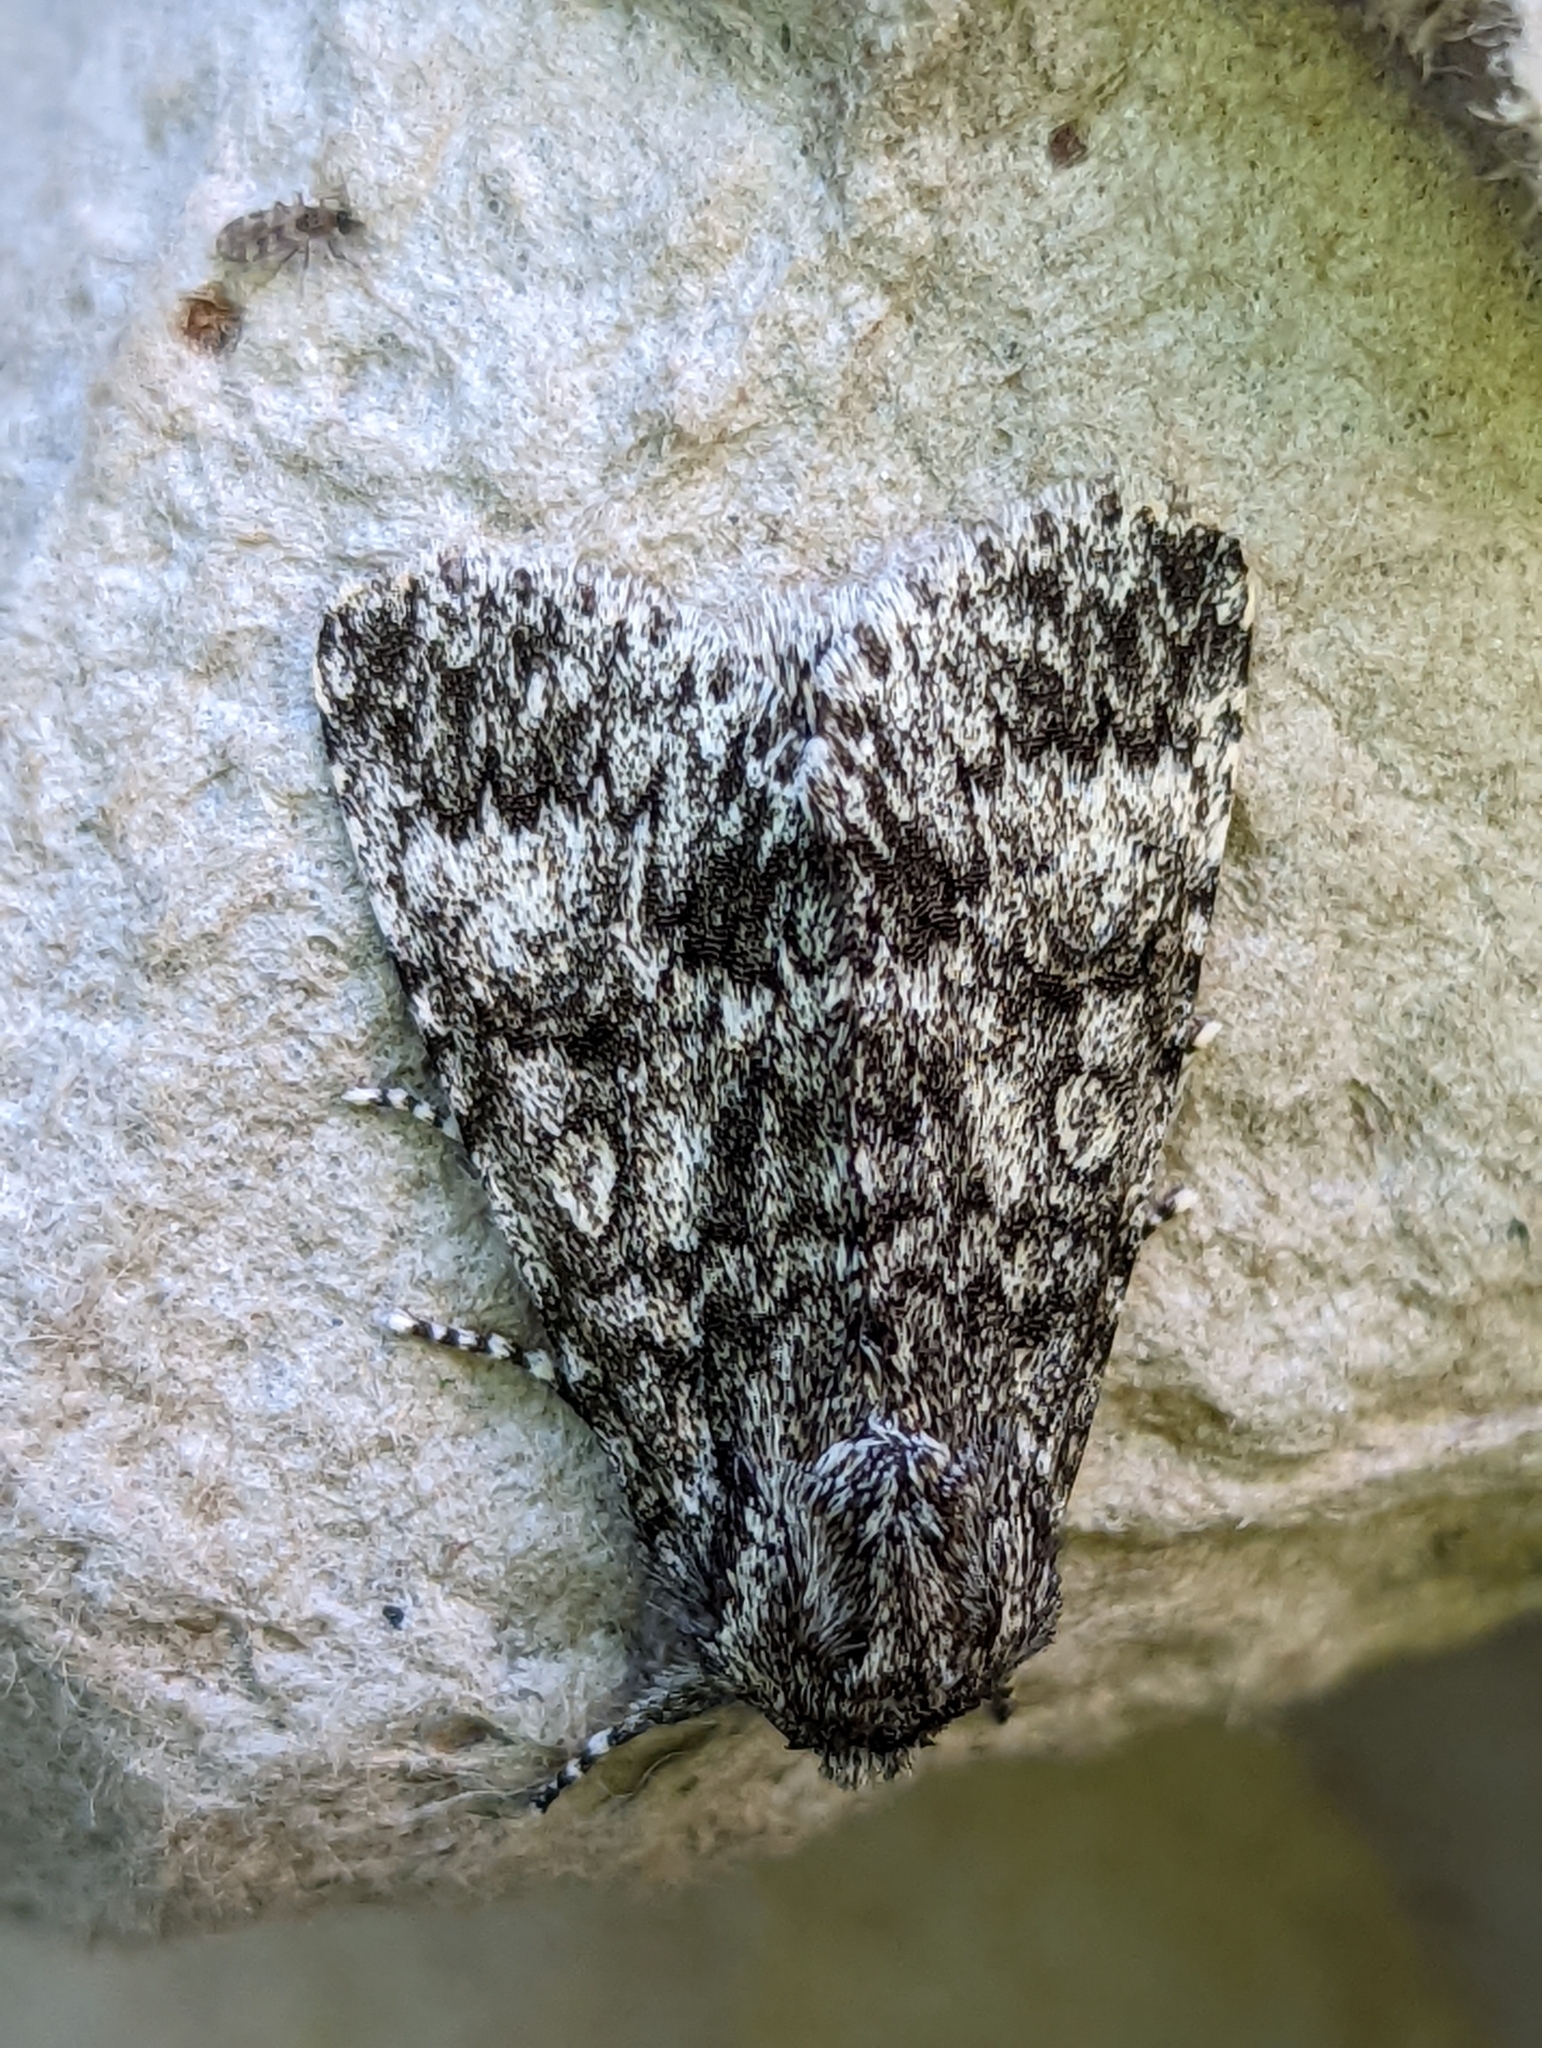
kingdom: Animalia
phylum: Arthropoda
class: Insecta
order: Lepidoptera
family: Noctuidae
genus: Acronicta
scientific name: Acronicta megacephala
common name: Poplar grey
